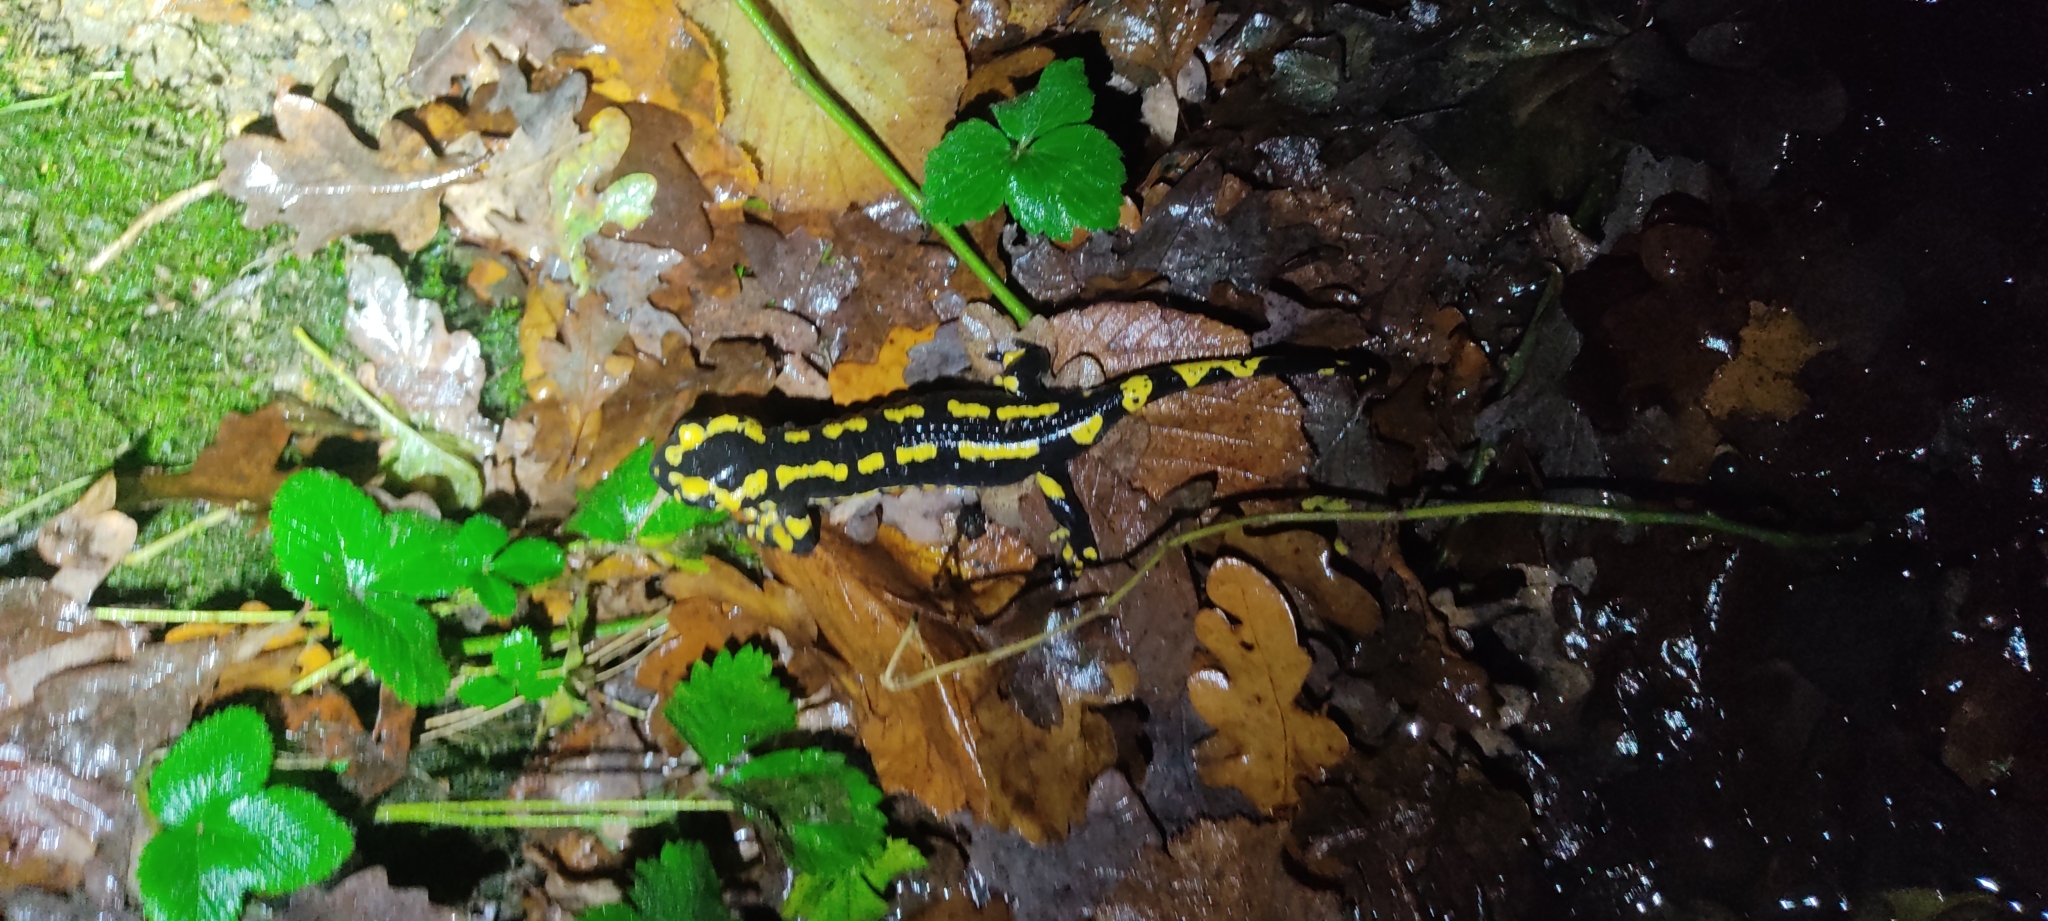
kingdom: Animalia
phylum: Chordata
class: Amphibia
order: Caudata
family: Salamandridae
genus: Salamandra
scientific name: Salamandra salamandra
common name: Fire salamander
